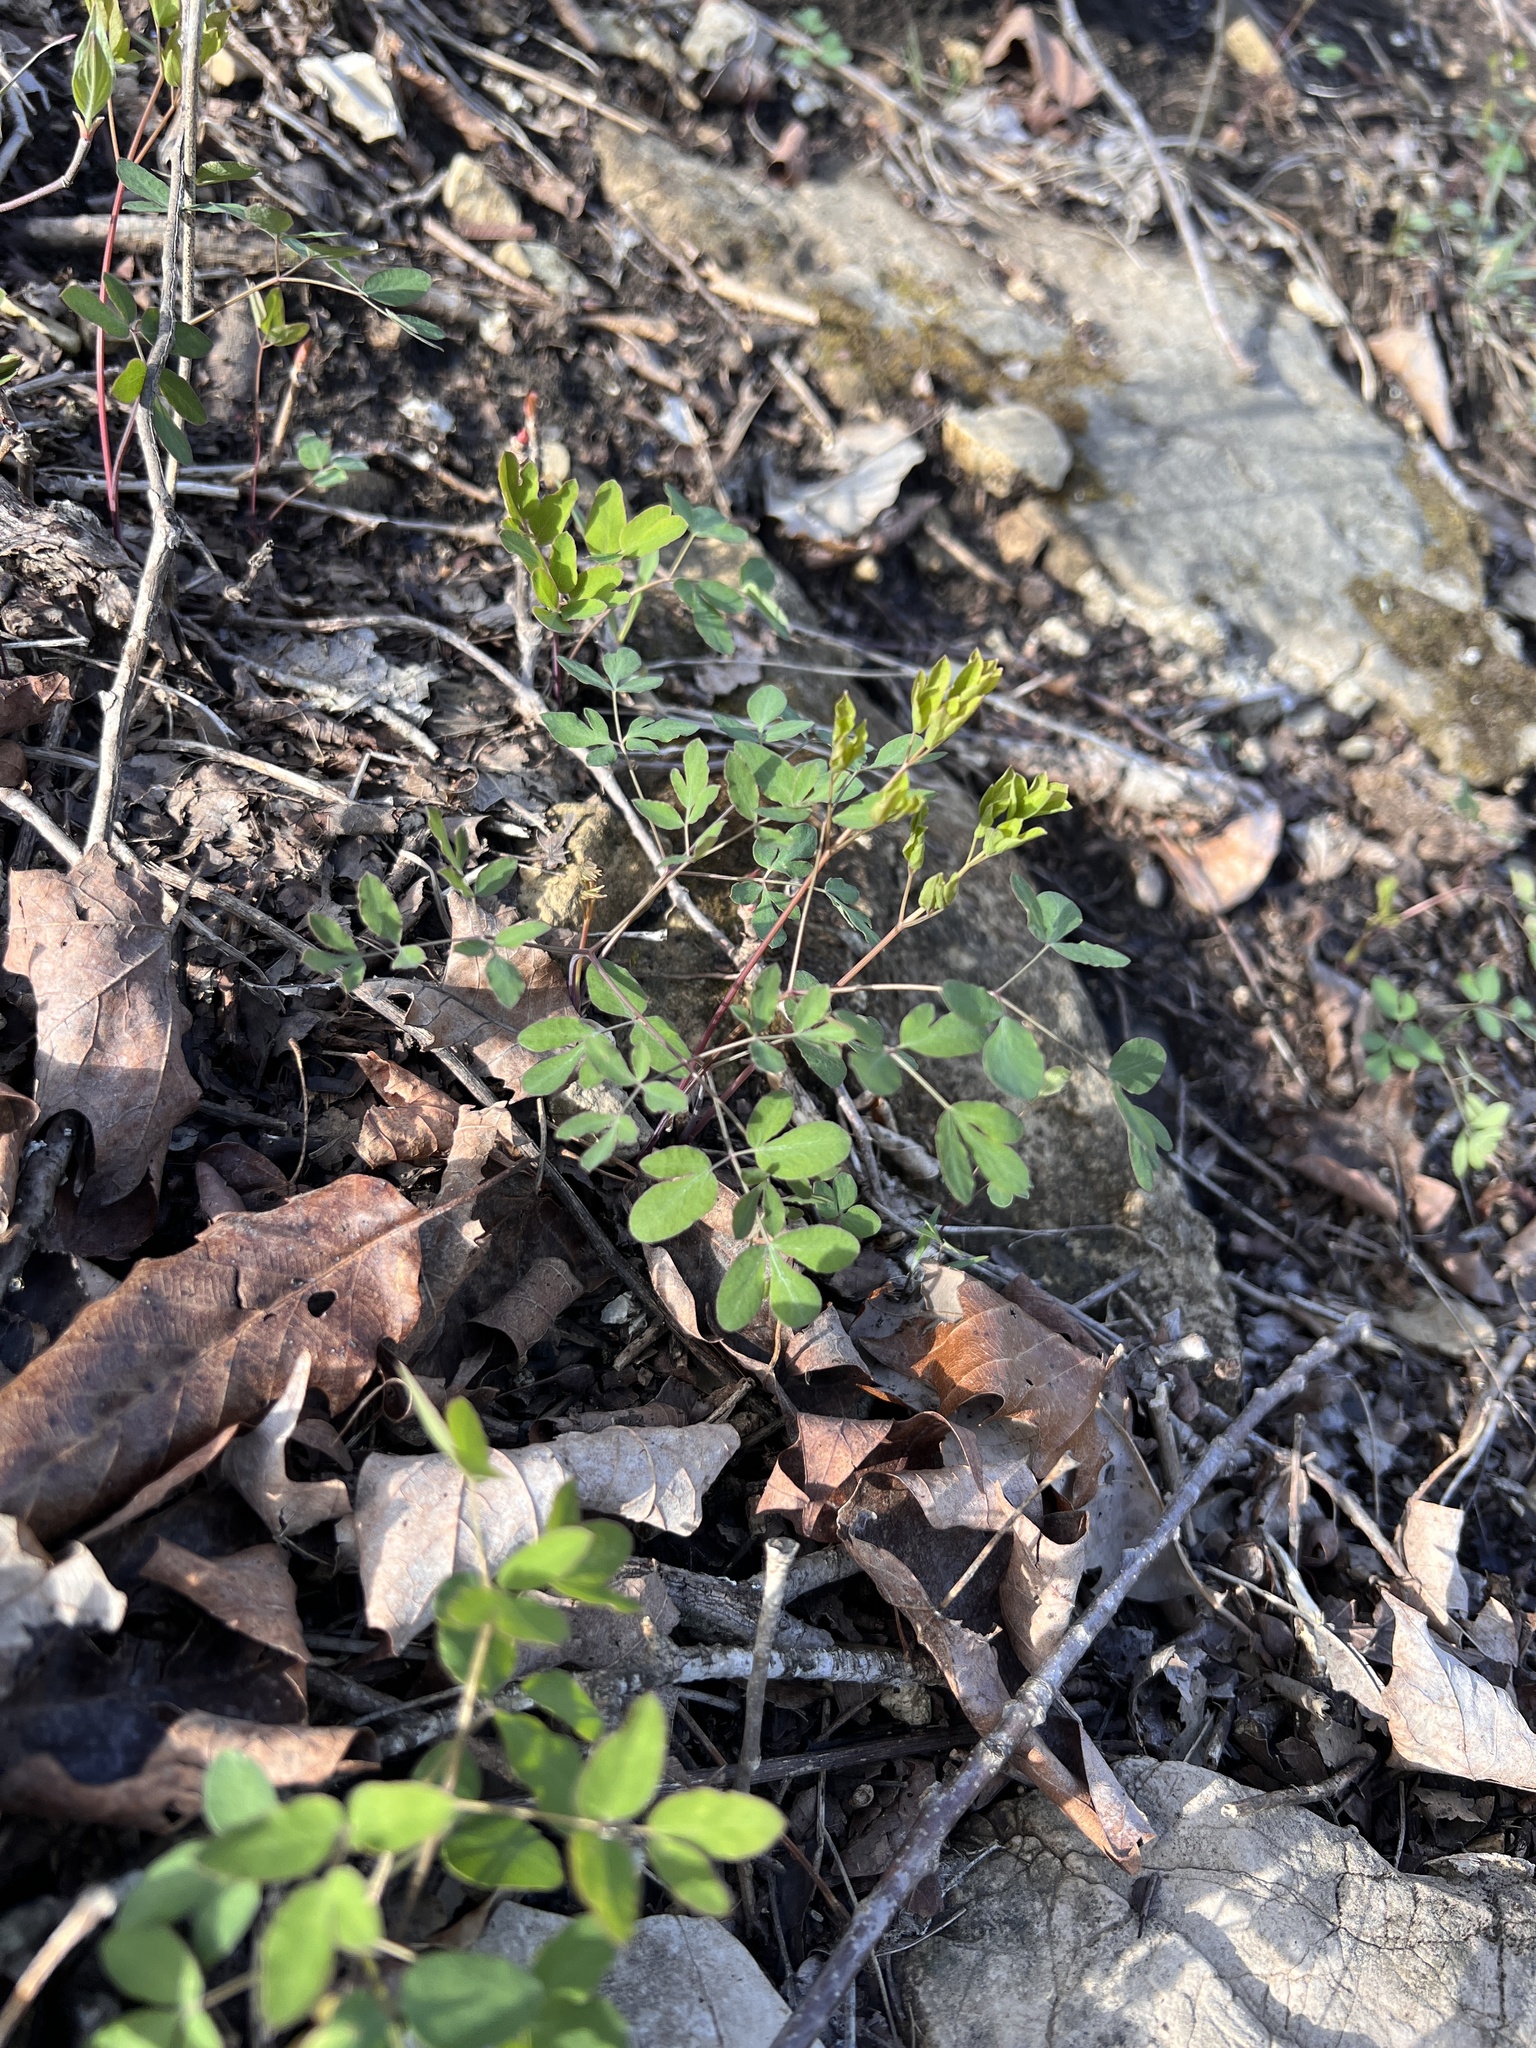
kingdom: Plantae
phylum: Tracheophyta
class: Magnoliopsida
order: Apiales
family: Apiaceae
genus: Taenidia
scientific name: Taenidia integerrima
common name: Golden alexander
